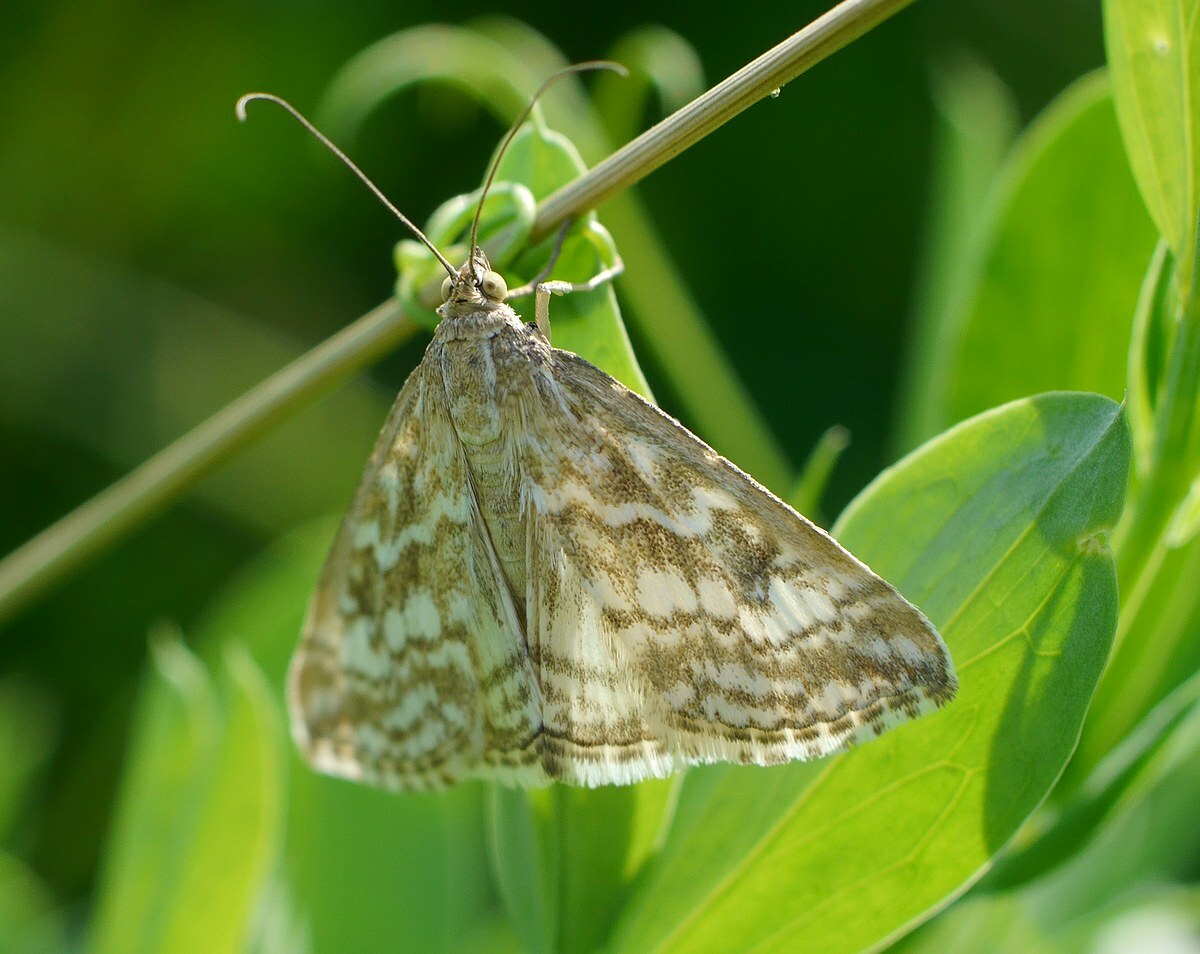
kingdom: Animalia
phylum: Arthropoda
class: Insecta
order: Lepidoptera
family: Crambidae
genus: Evergestis
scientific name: Evergestis frumentalis
